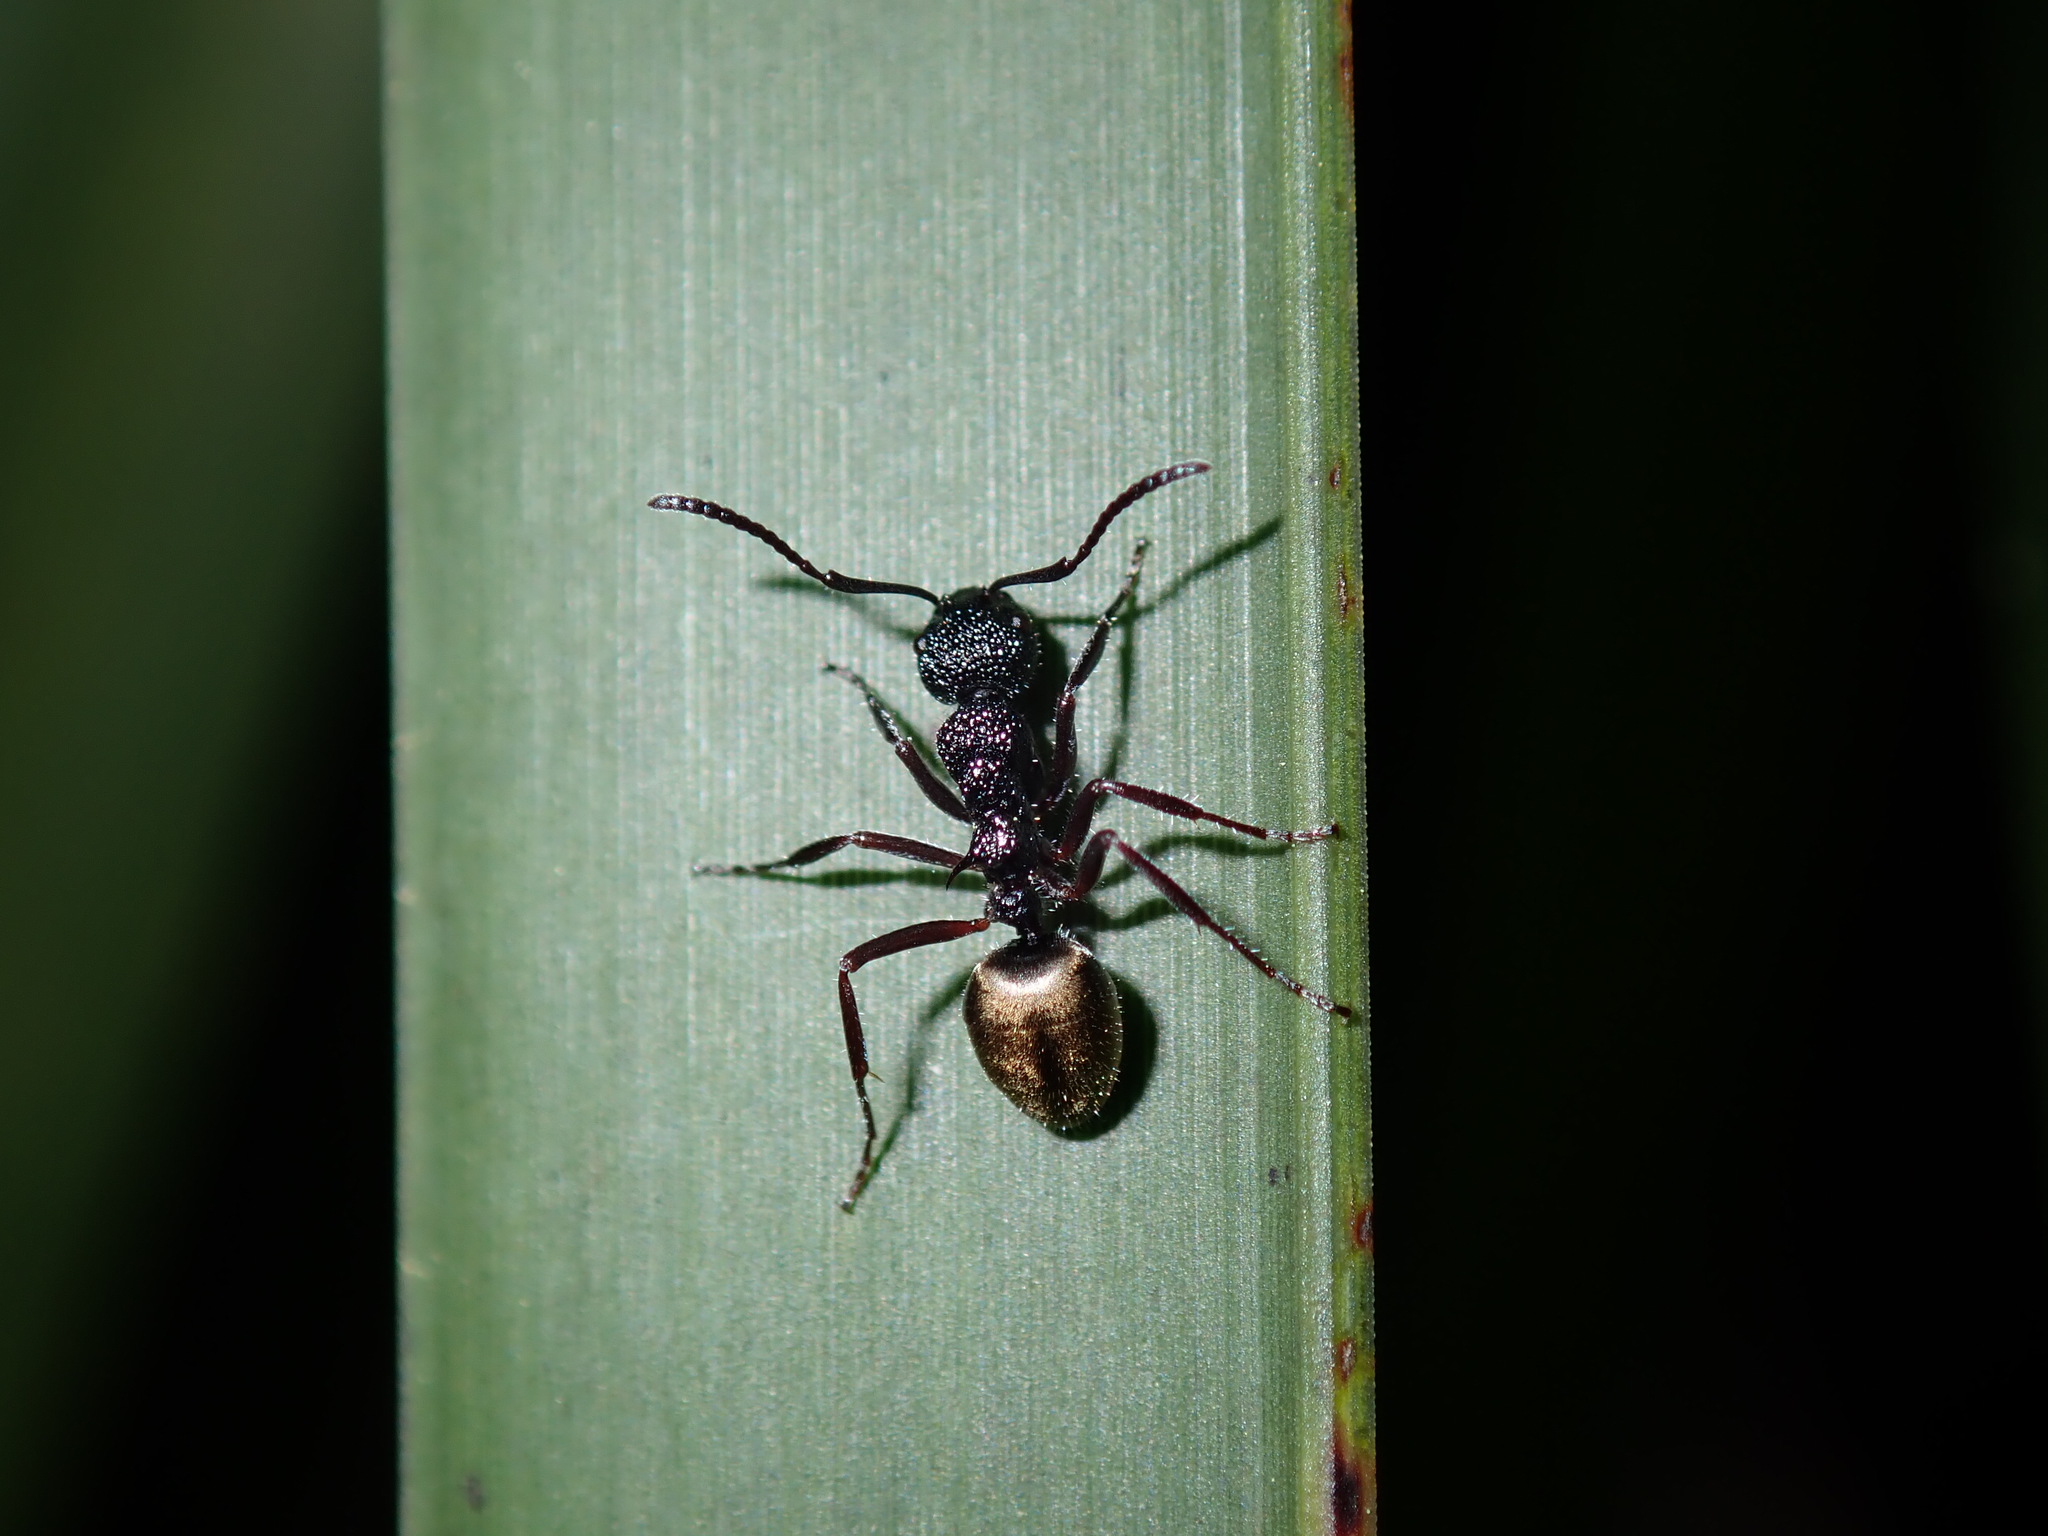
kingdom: Animalia
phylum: Arthropoda
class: Insecta
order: Hymenoptera
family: Formicidae
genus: Dolichoderus
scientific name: Dolichoderus inferus
